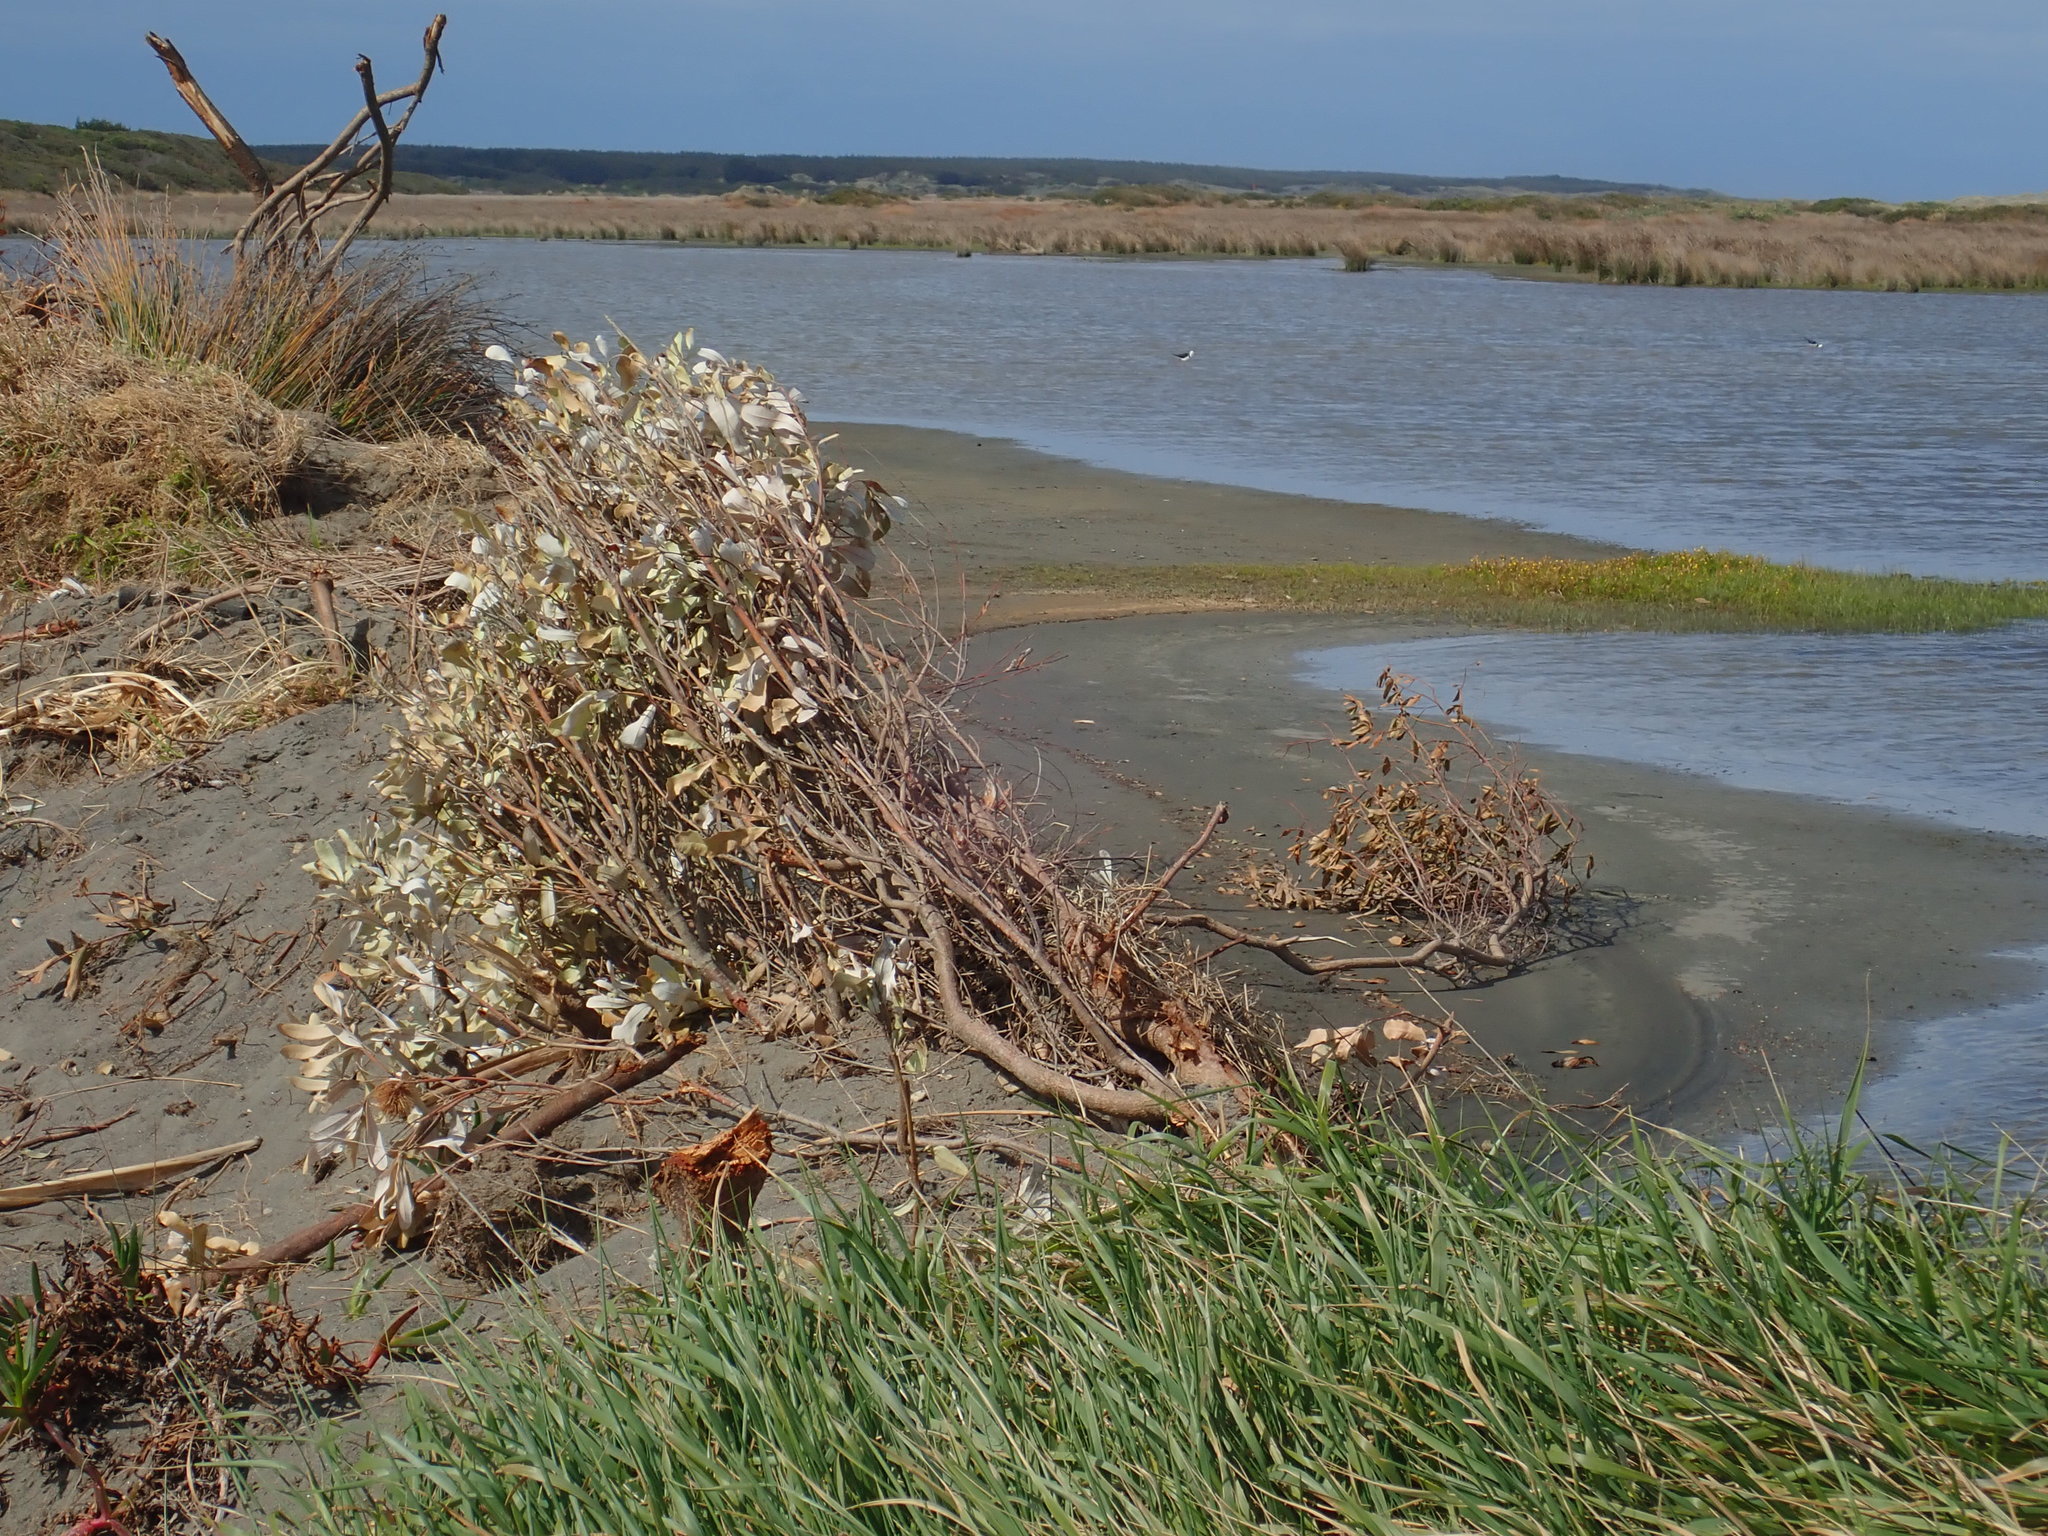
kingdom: Animalia
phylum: Chordata
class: Aves
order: Charadriiformes
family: Recurvirostridae
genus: Himantopus
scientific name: Himantopus leucocephalus
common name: White-headed stilt
